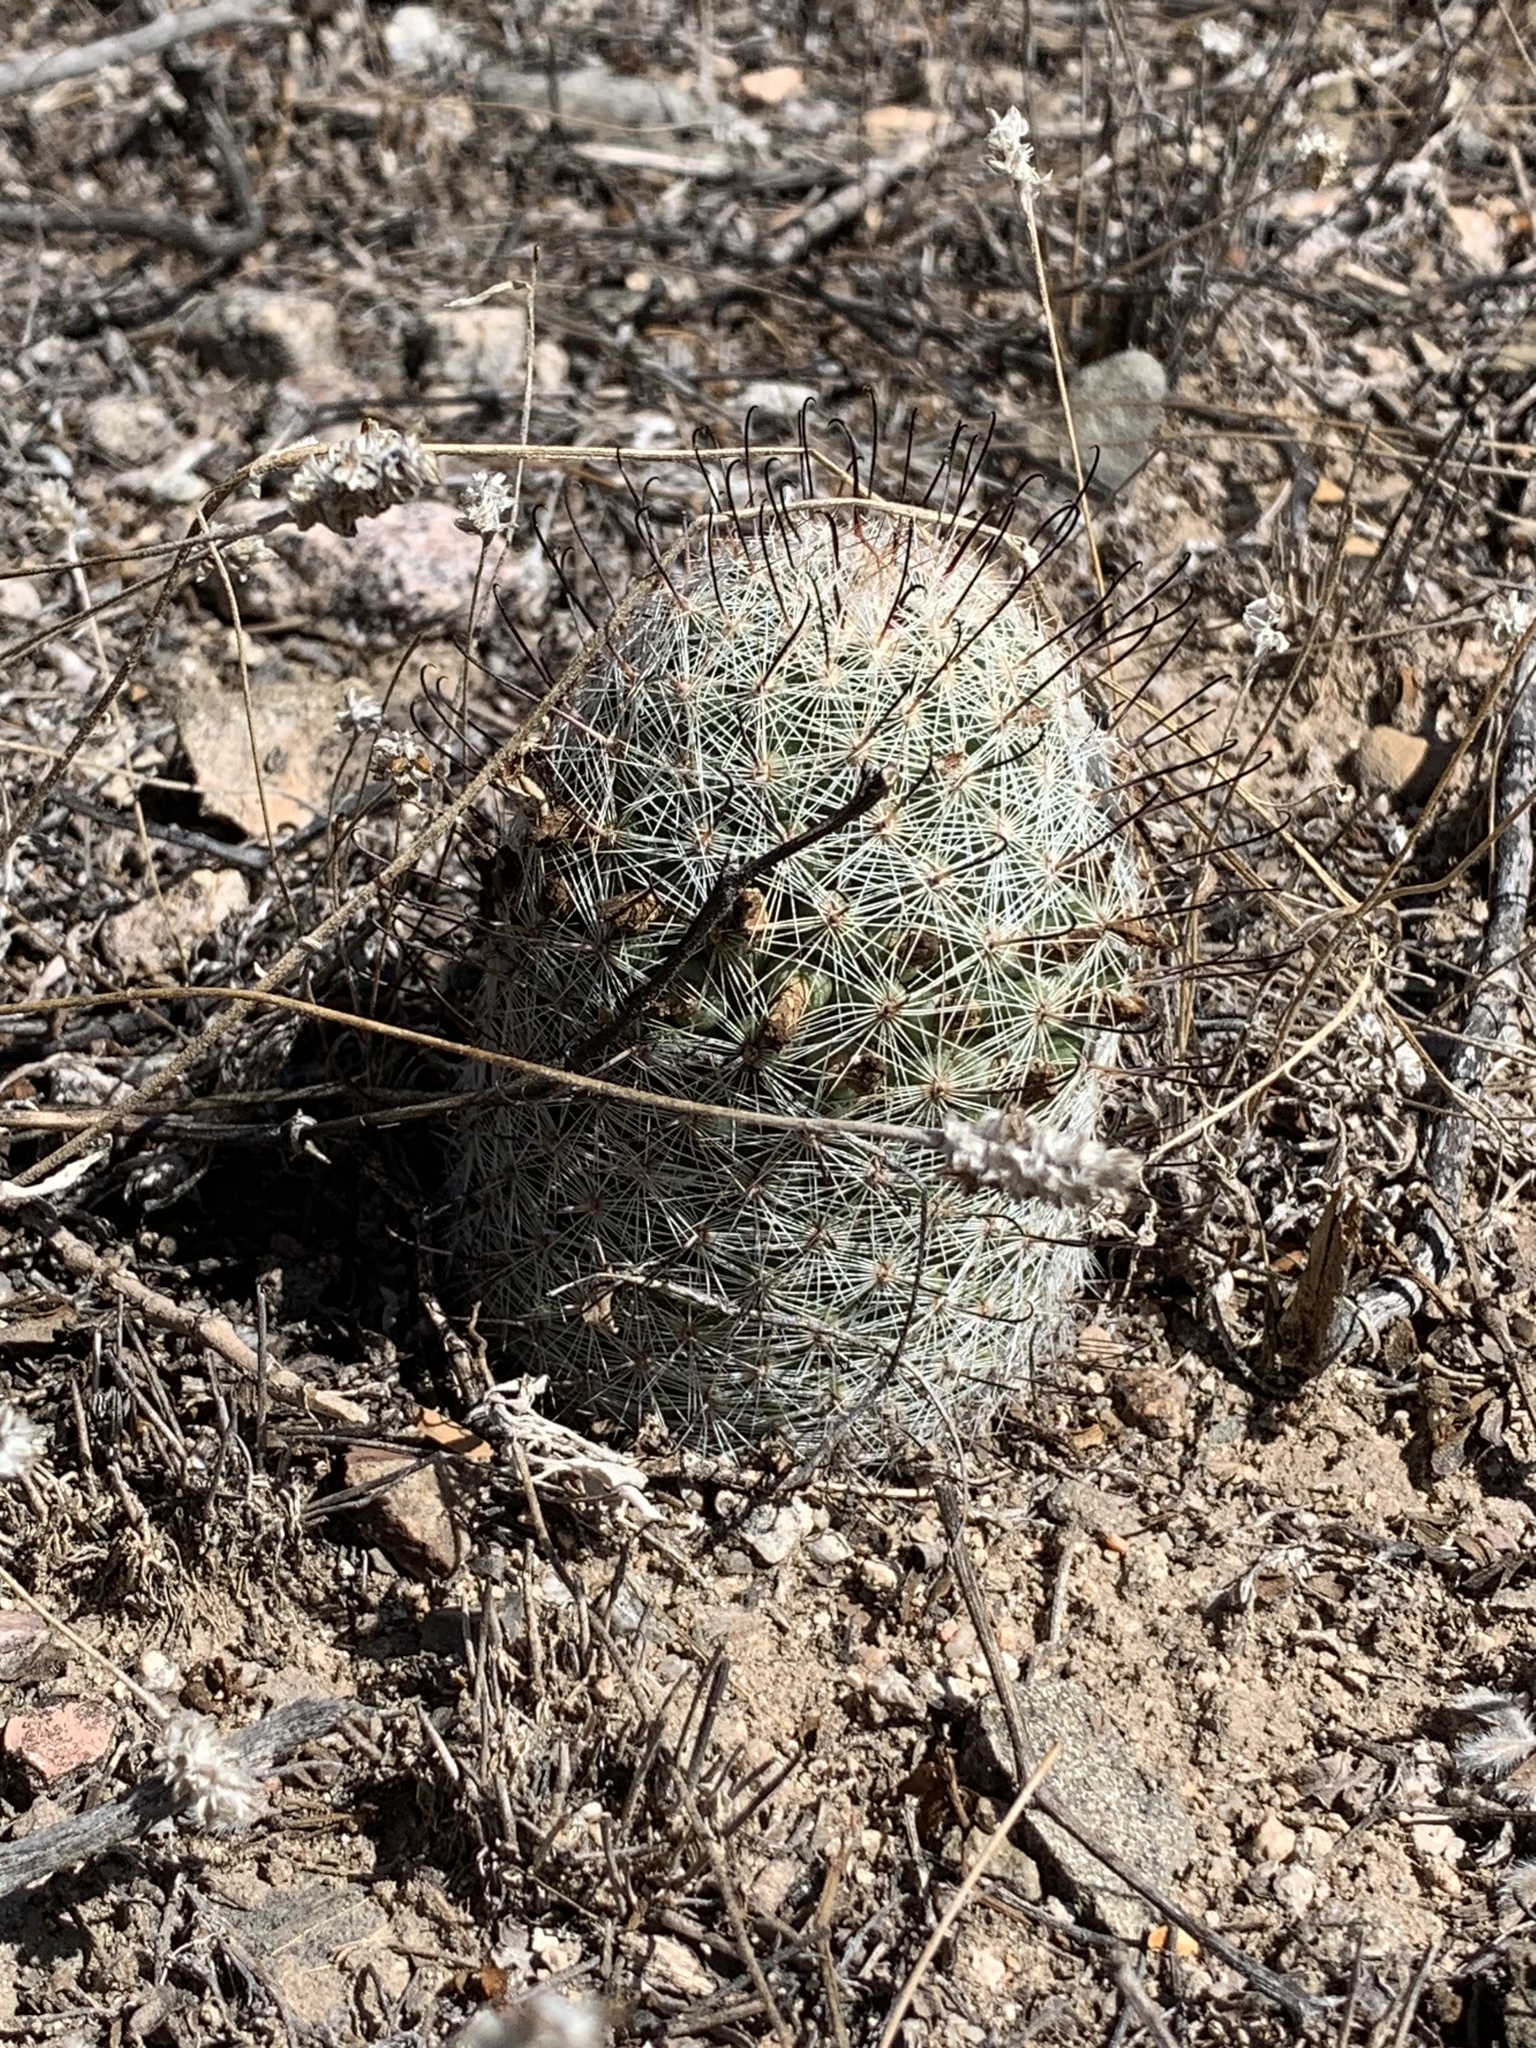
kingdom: Plantae
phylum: Tracheophyta
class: Magnoliopsida
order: Caryophyllales
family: Cactaceae
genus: Cochemiea
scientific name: Cochemiea grahamii
